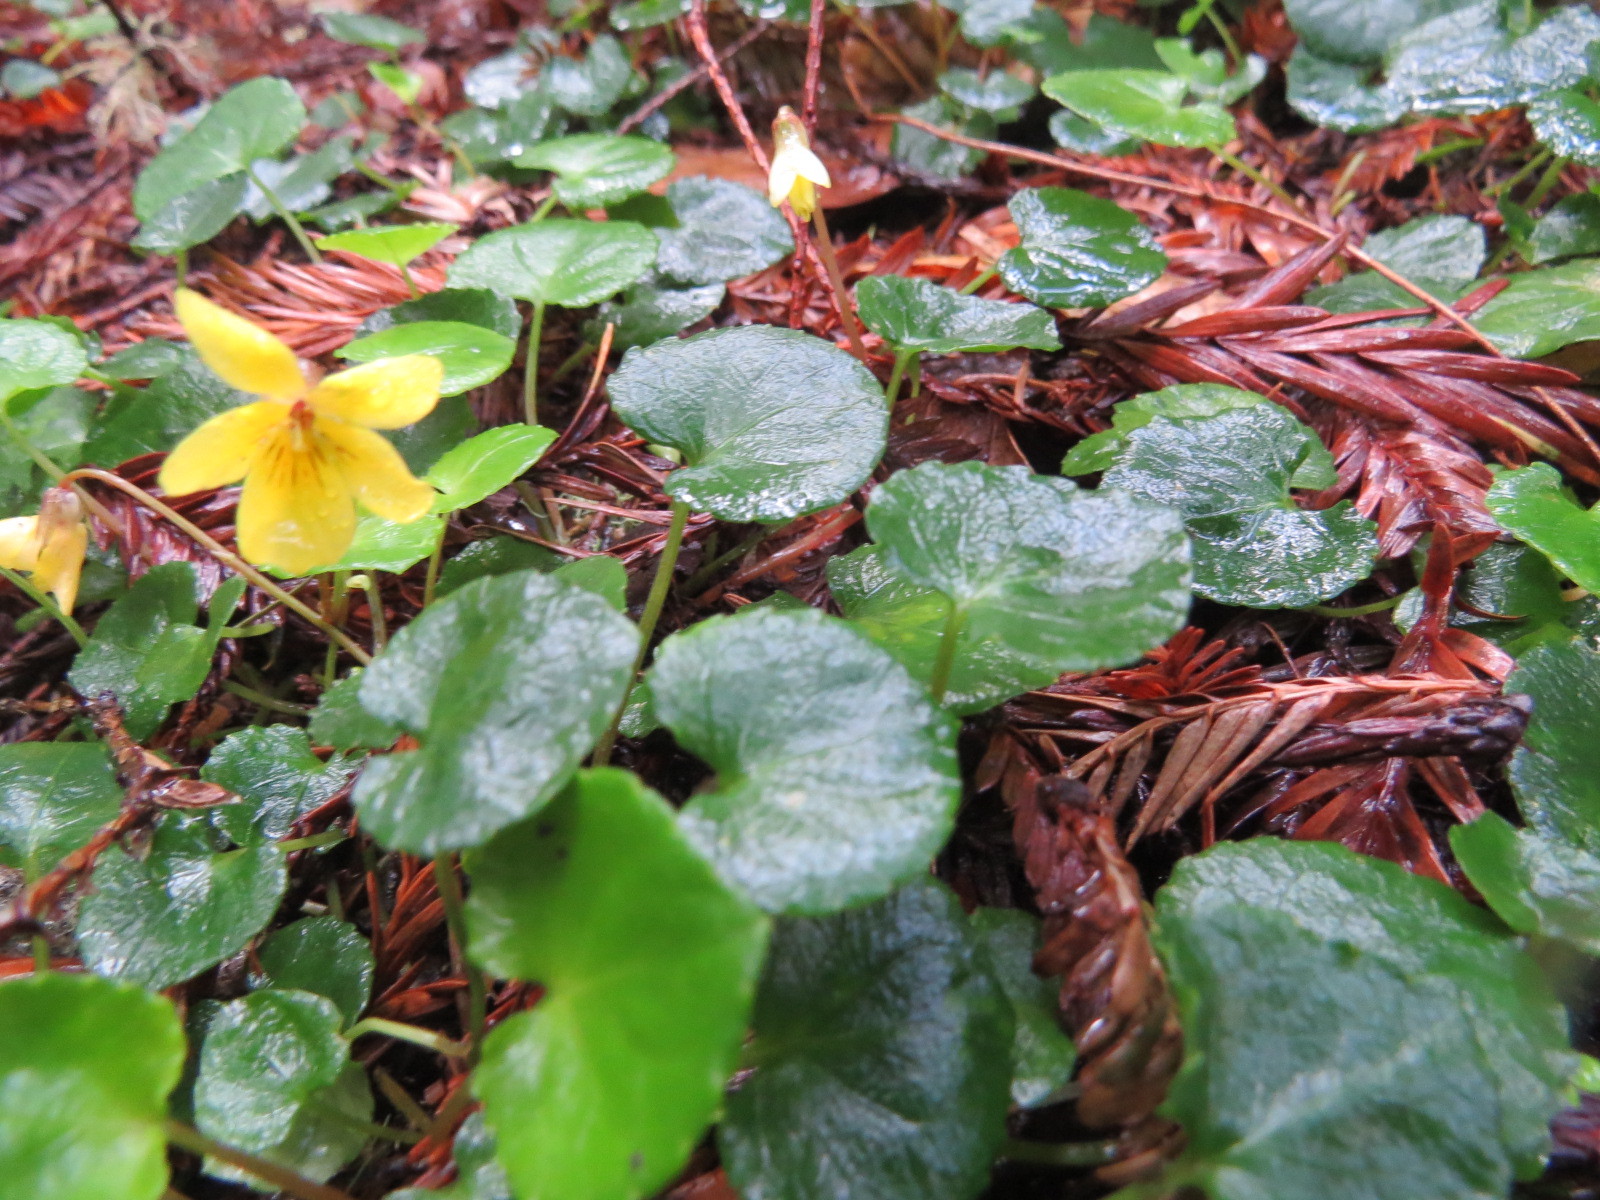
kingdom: Plantae
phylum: Tracheophyta
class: Magnoliopsida
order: Malpighiales
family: Violaceae
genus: Viola
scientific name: Viola sempervirens
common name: Evergreen violet
